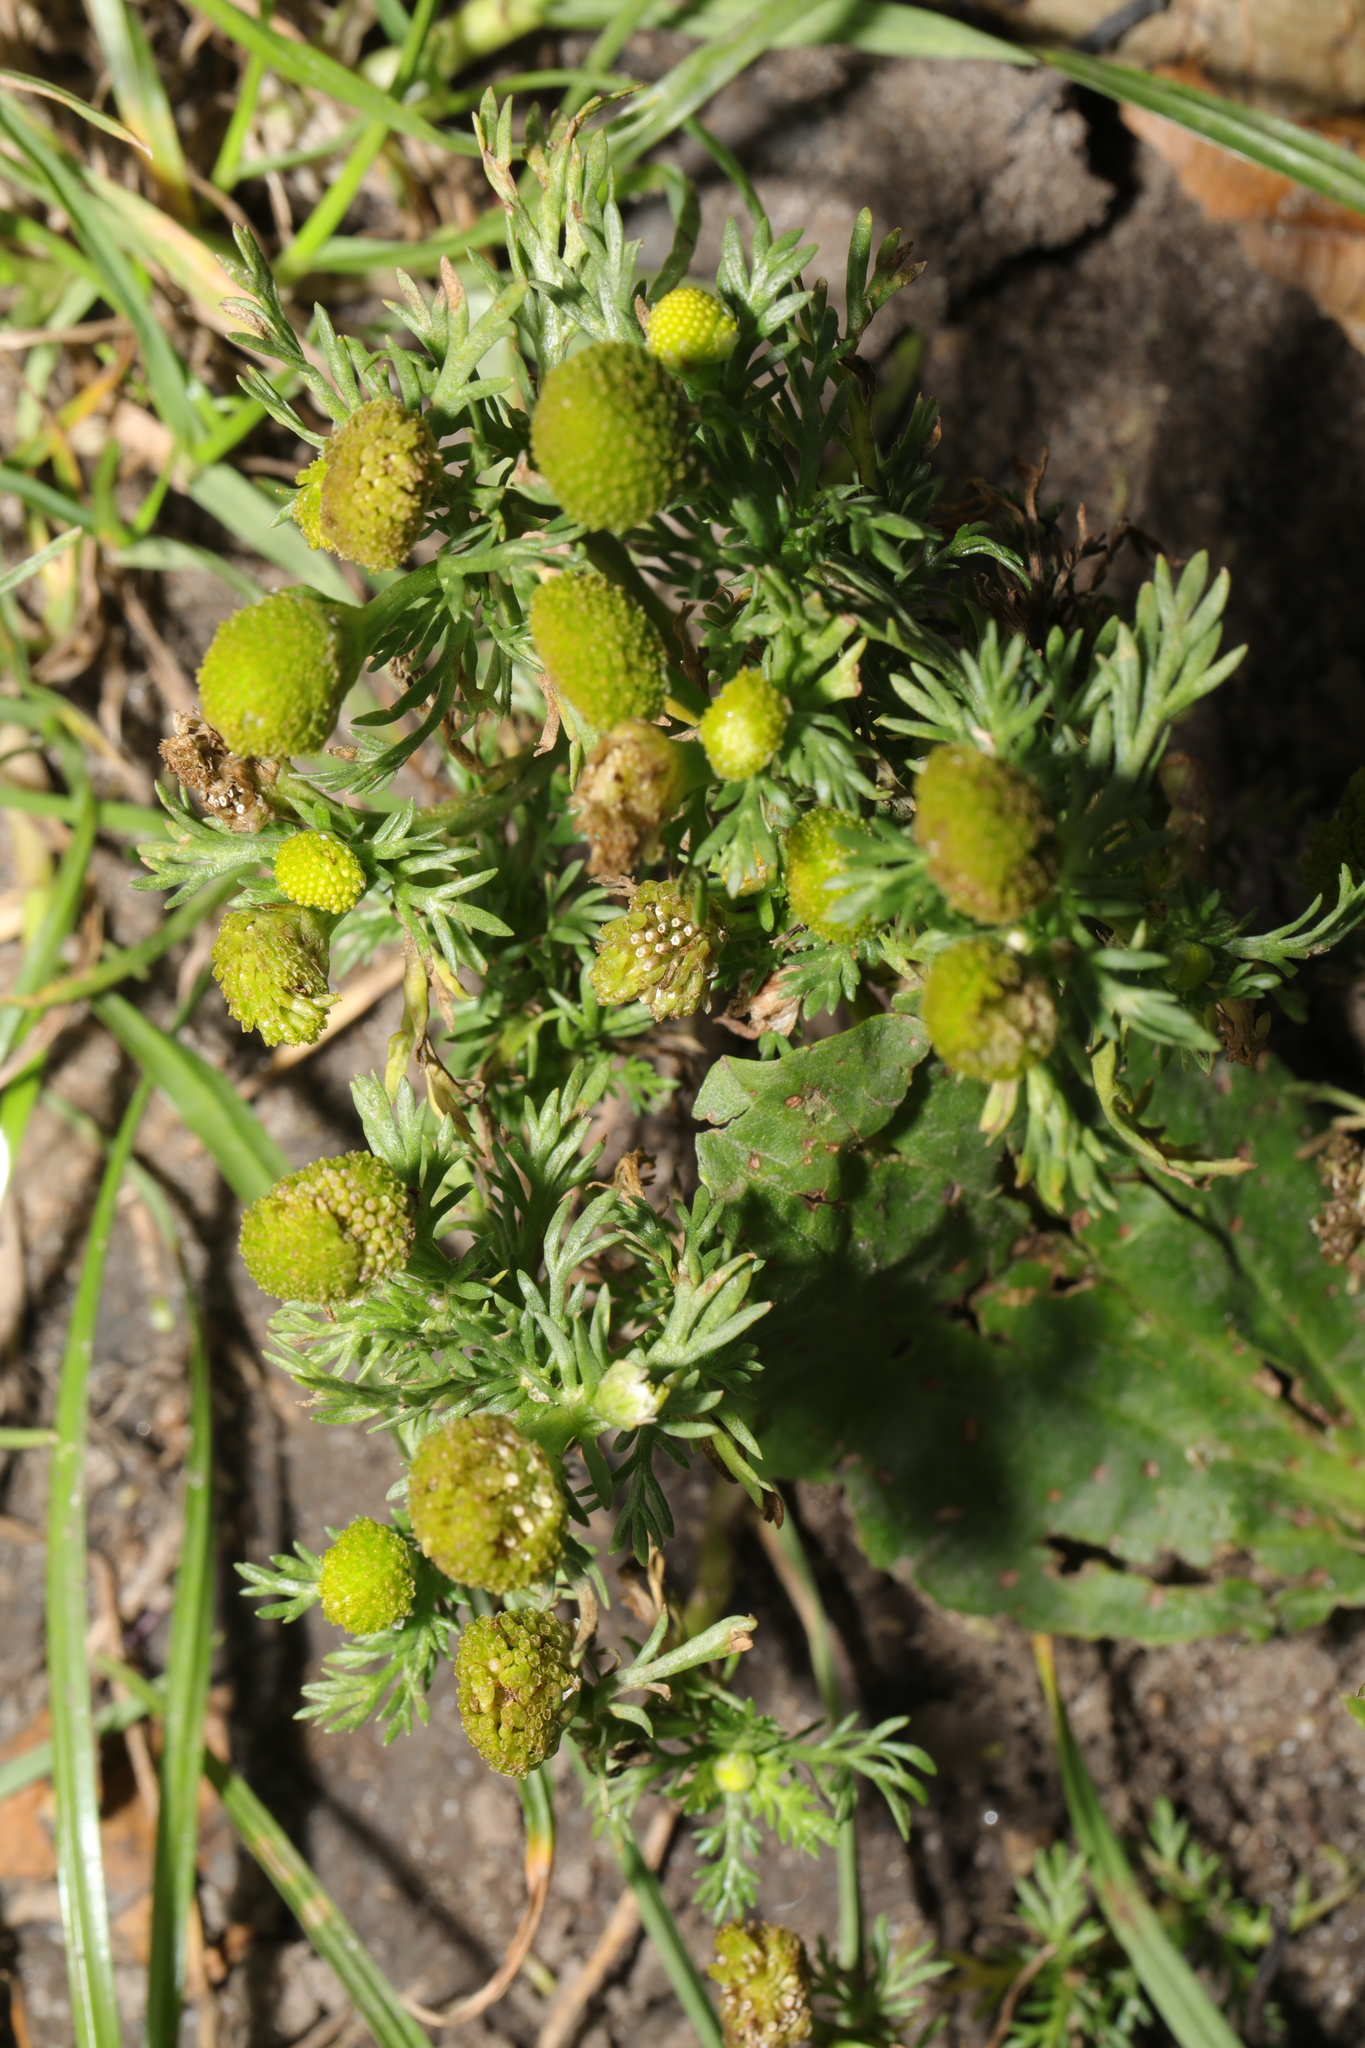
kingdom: Plantae
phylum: Tracheophyta
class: Magnoliopsida
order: Asterales
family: Asteraceae
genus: Matricaria
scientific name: Matricaria discoidea
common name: Disc mayweed
